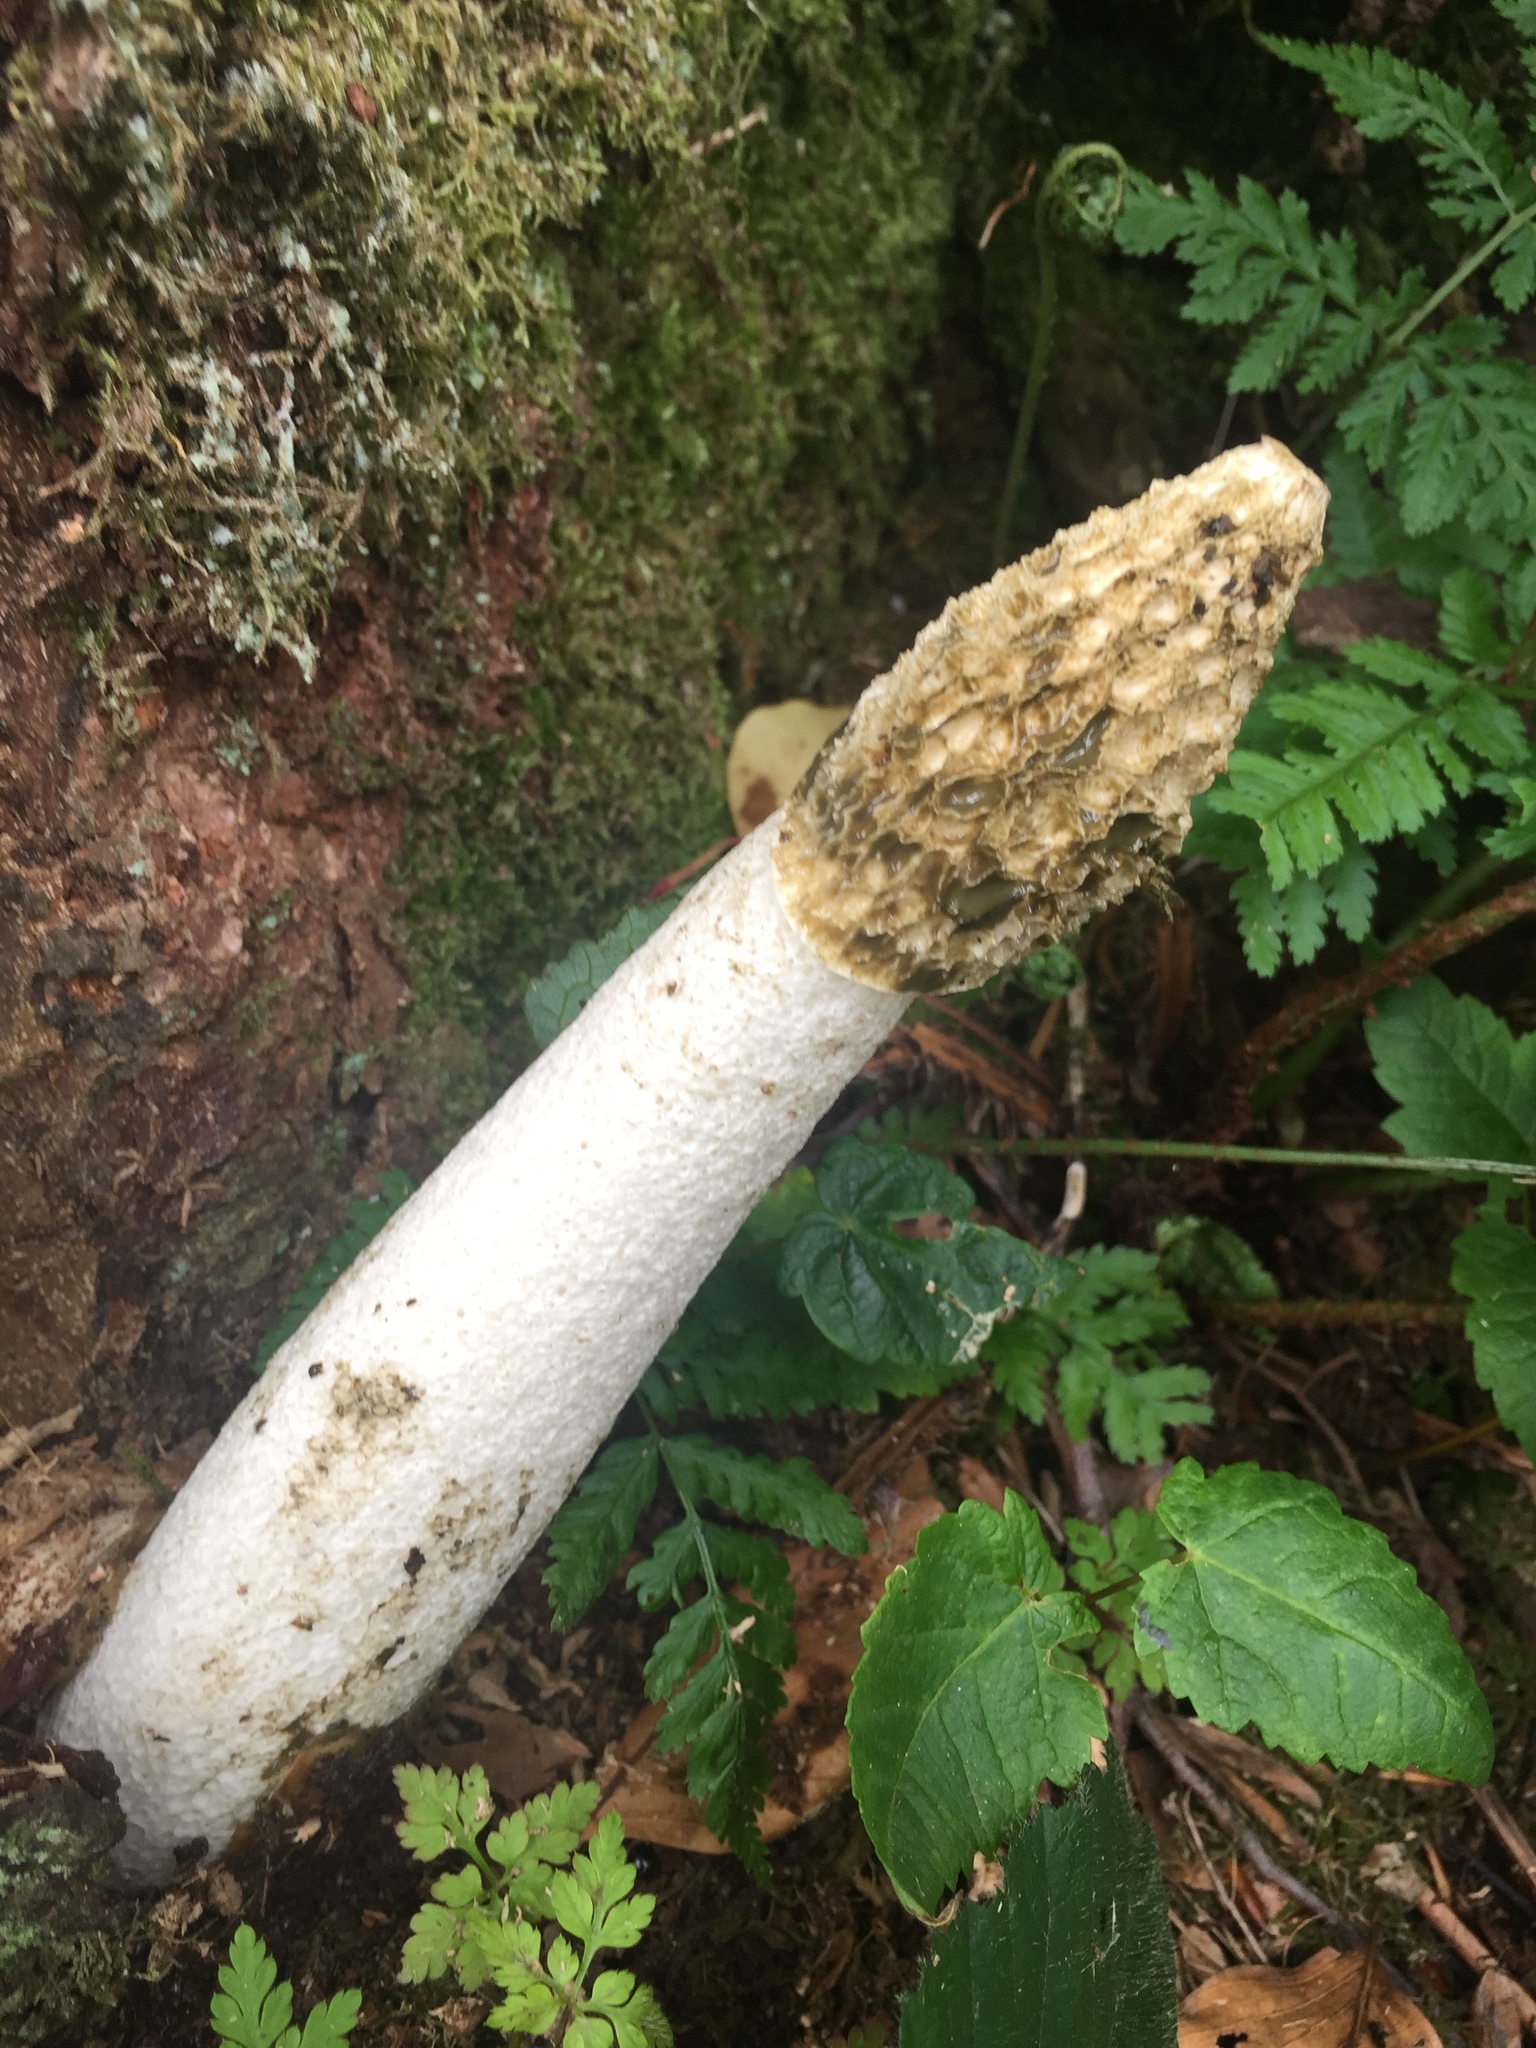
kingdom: Fungi
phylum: Basidiomycota
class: Agaricomycetes
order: Phallales
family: Phallaceae
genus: Phallus
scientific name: Phallus impudicus
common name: Common stinkhorn
